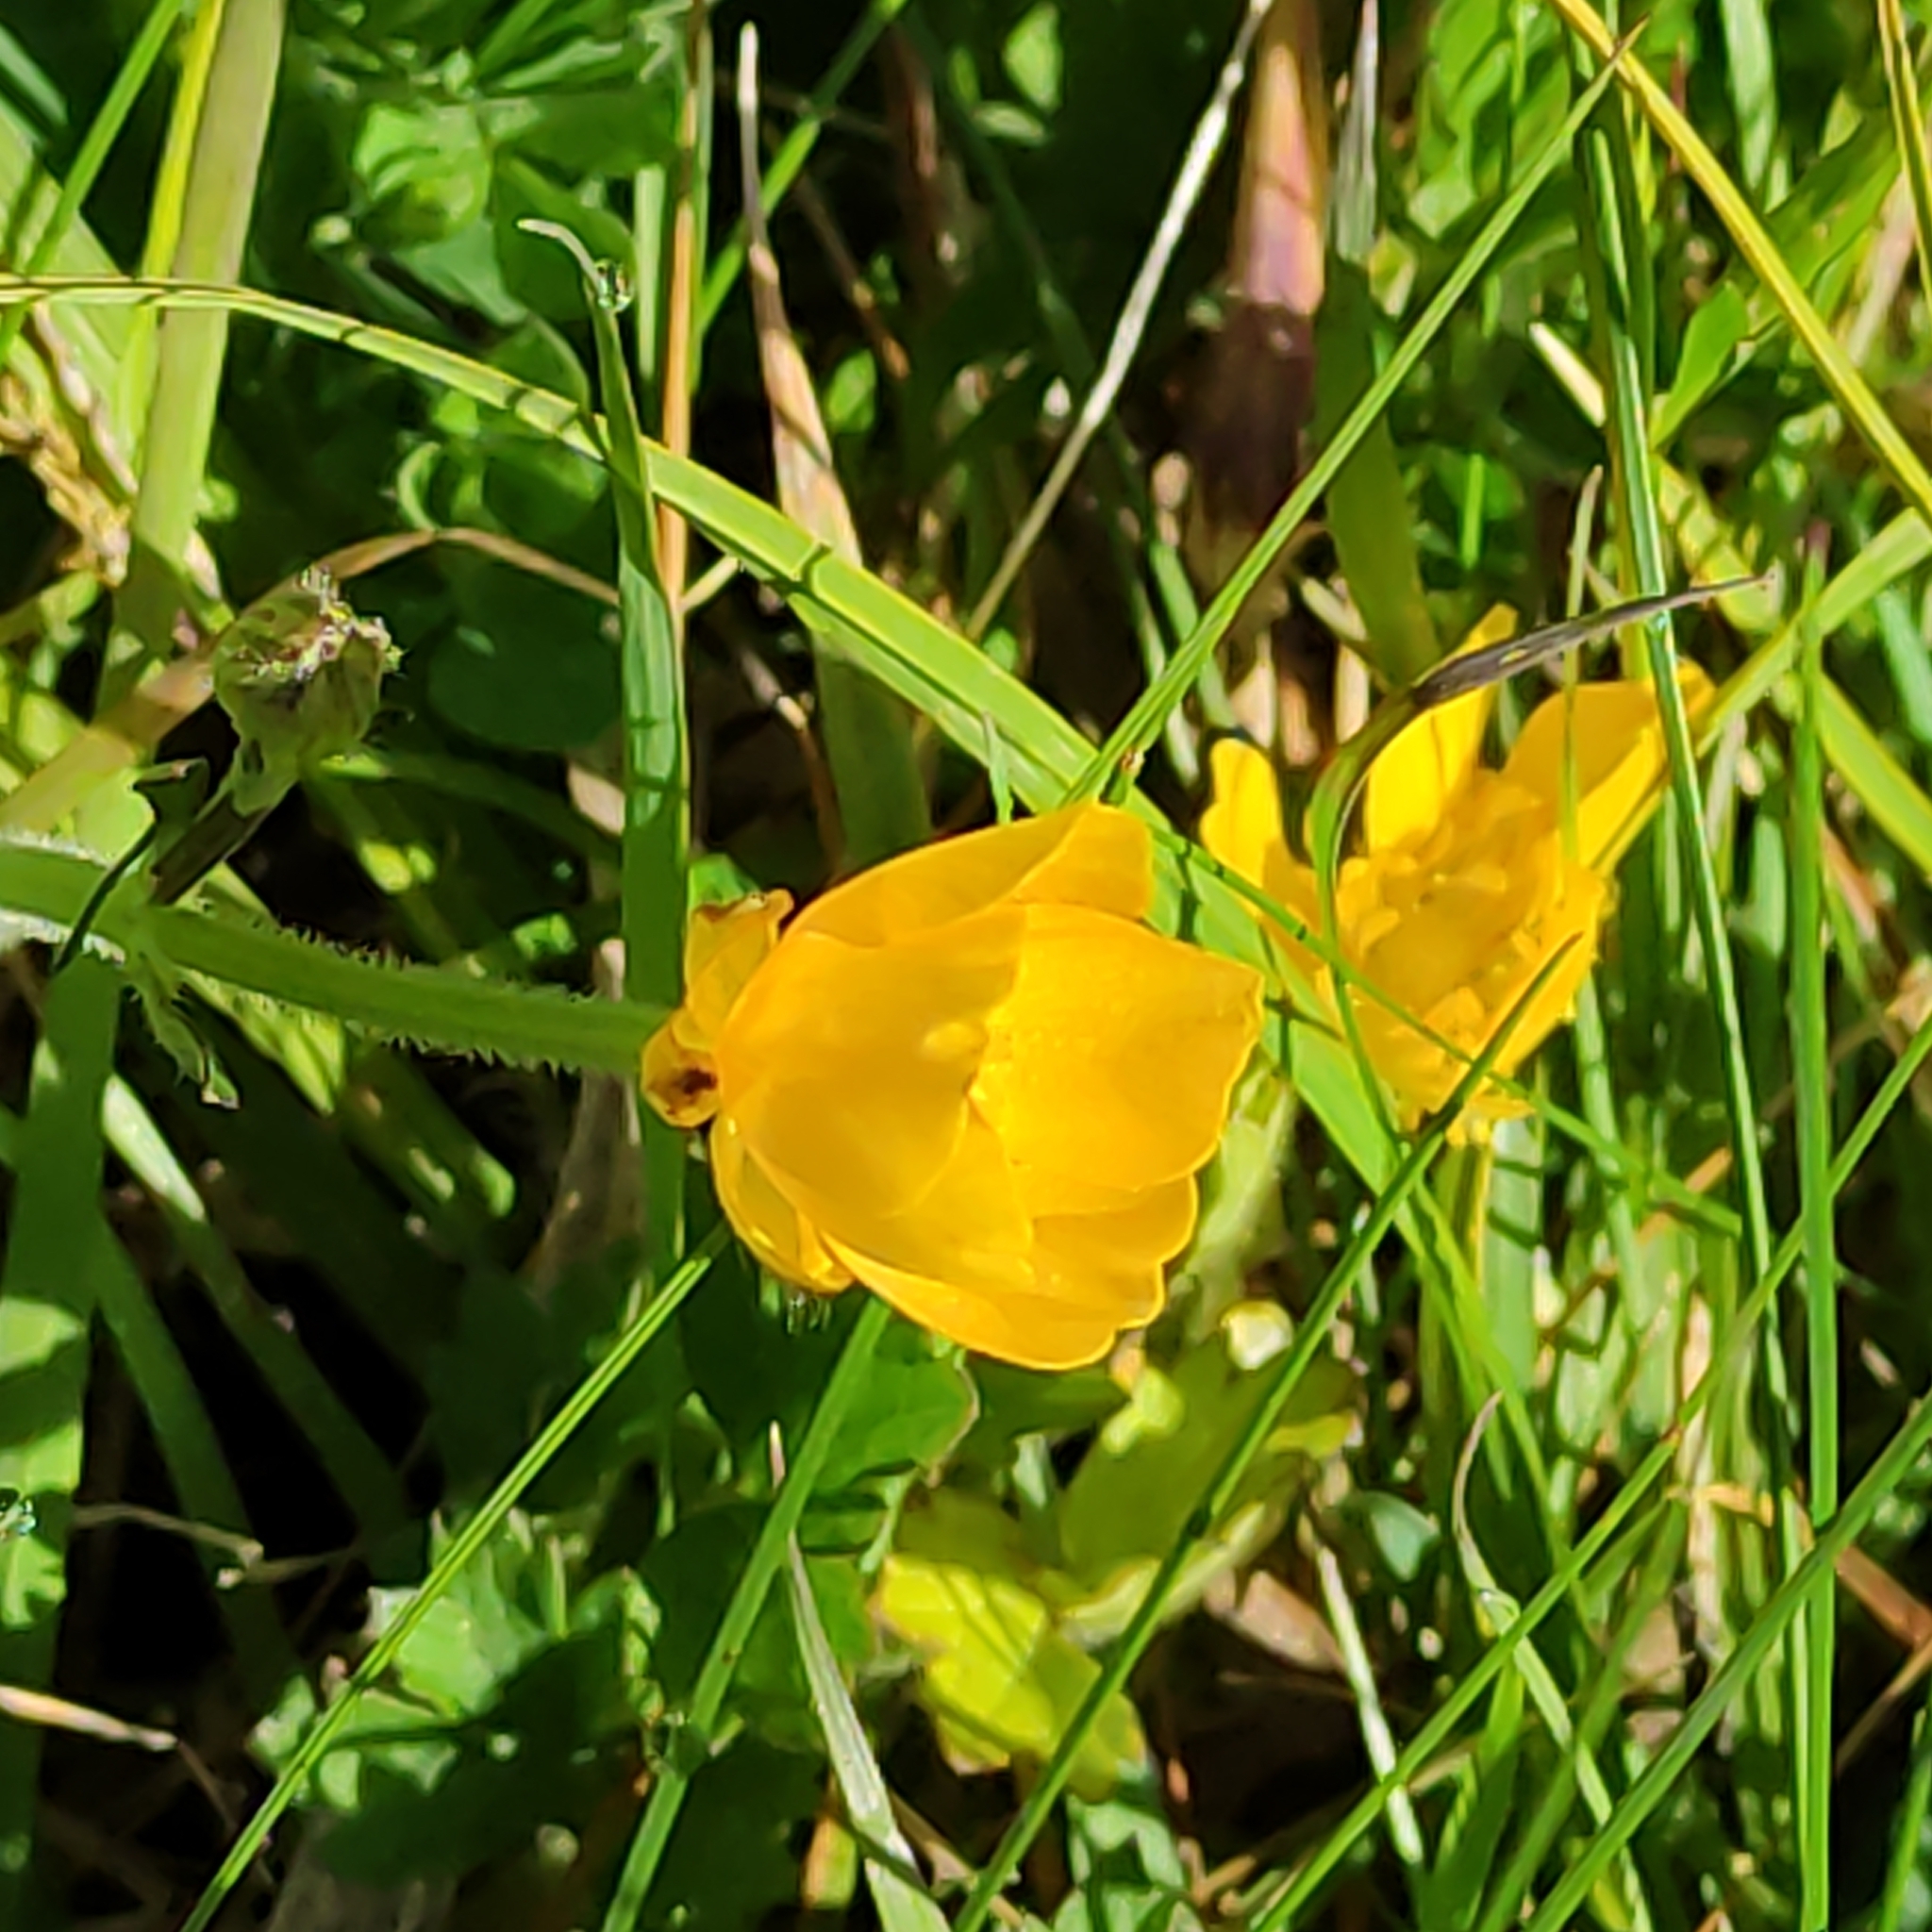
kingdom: Plantae
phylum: Tracheophyta
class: Magnoliopsida
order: Ranunculales
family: Ranunculaceae
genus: Ranunculus
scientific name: Ranunculus repens
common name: Creeping buttercup
